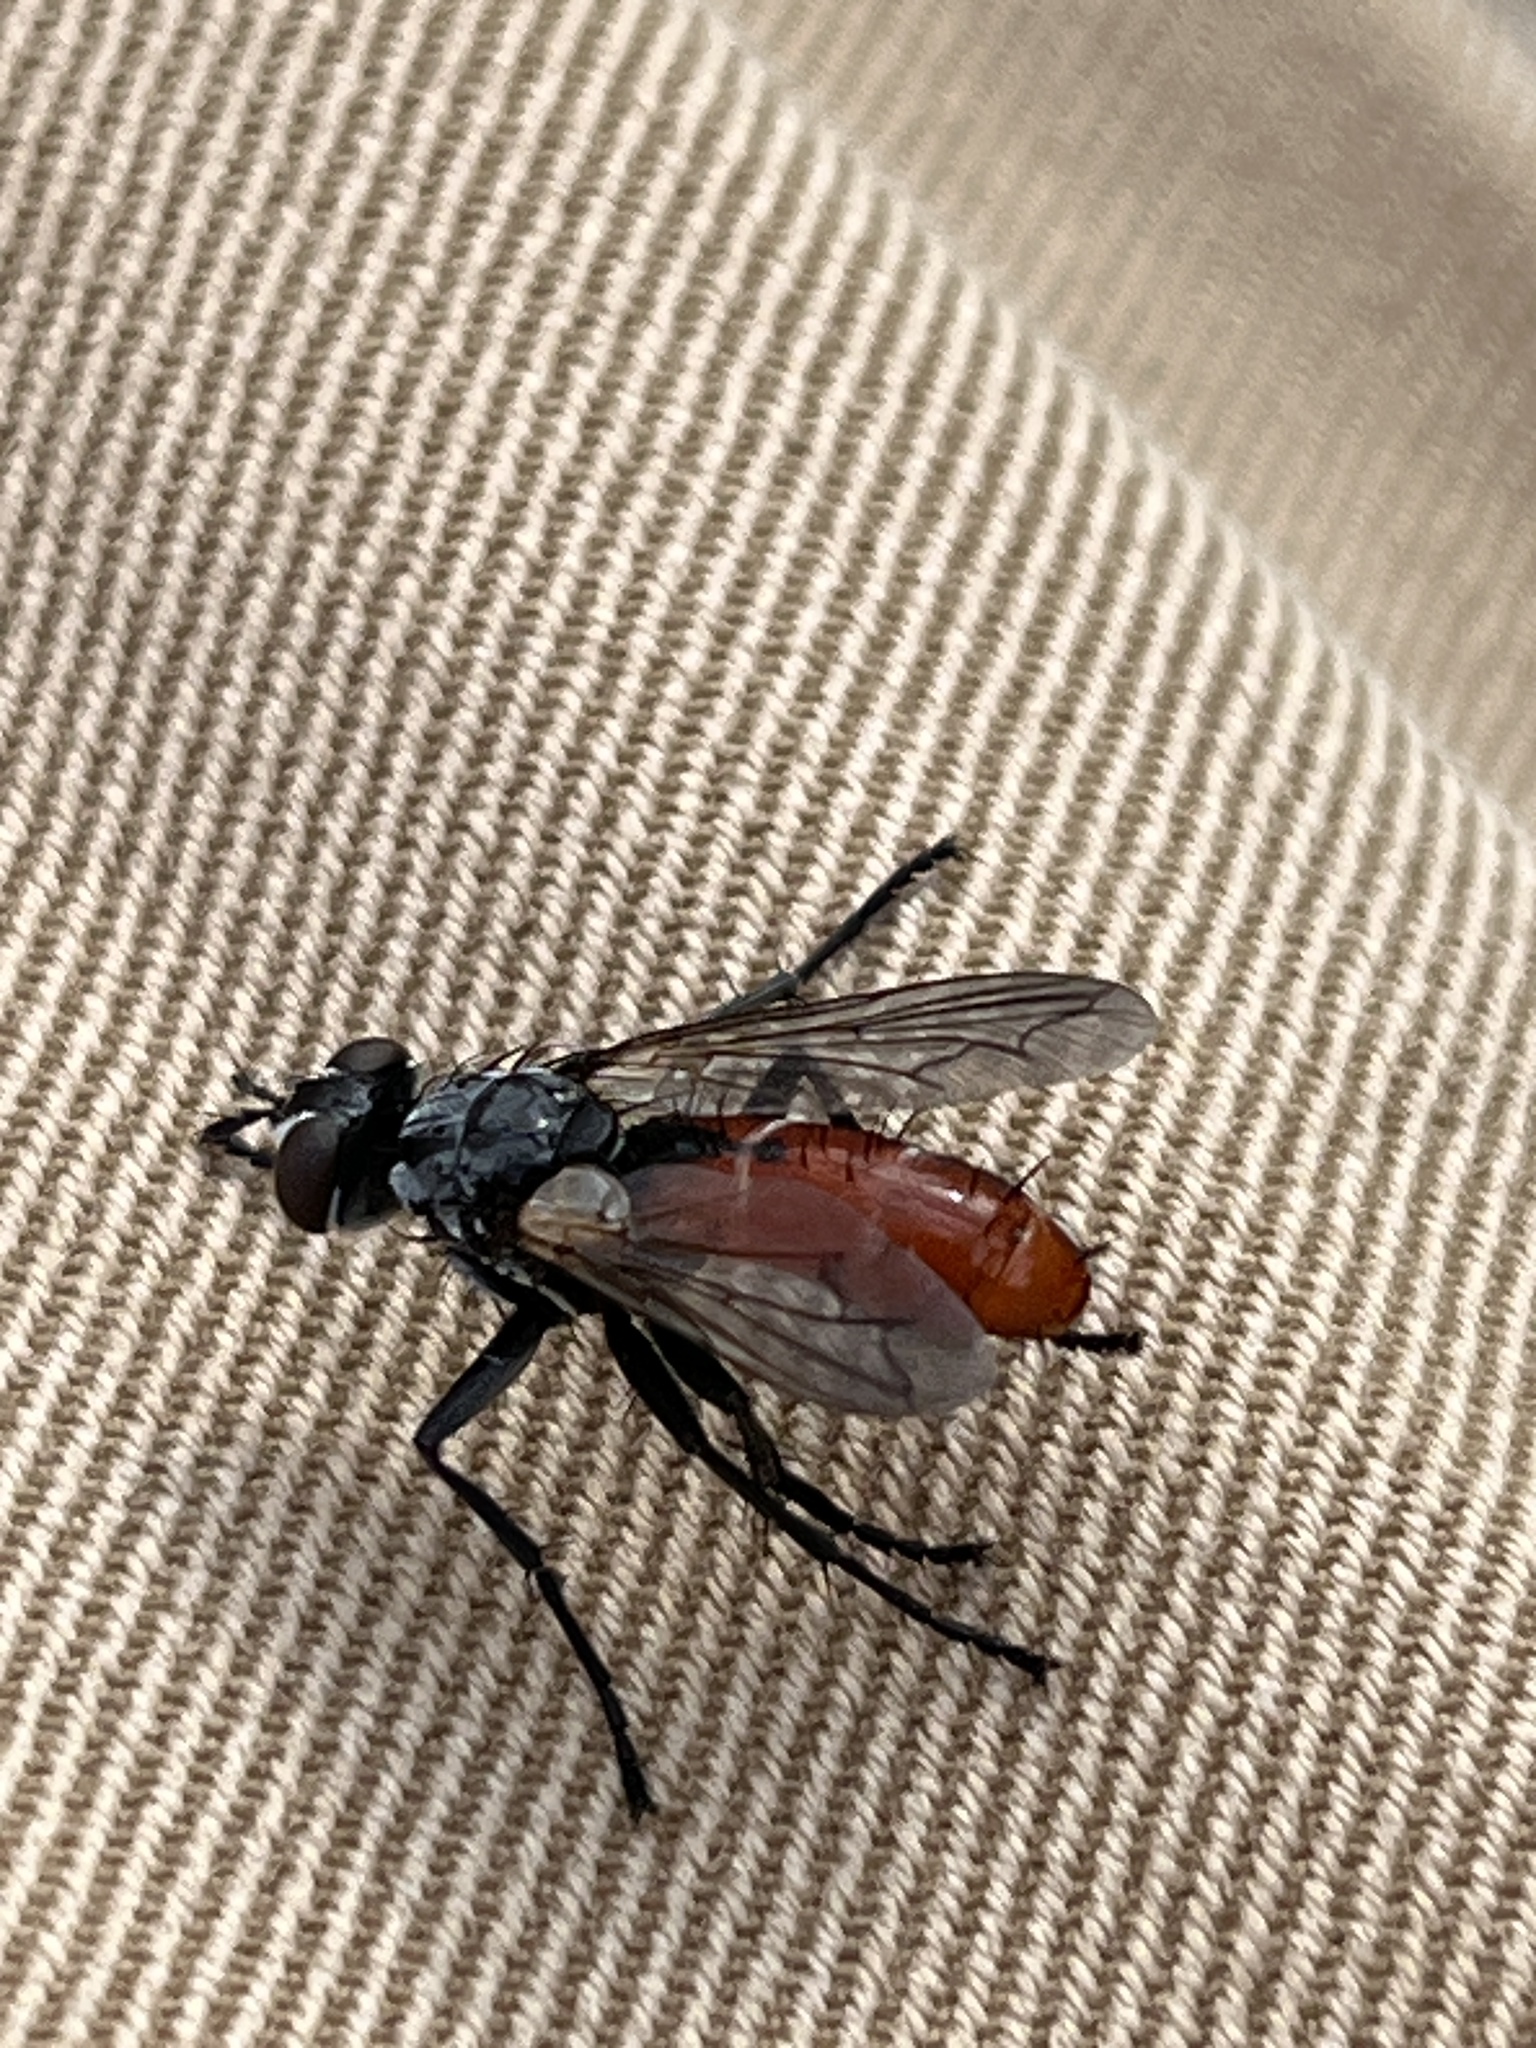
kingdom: Animalia
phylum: Arthropoda
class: Insecta
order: Diptera
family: Tachinidae
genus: Cylindromyia
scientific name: Cylindromyia bicolor
